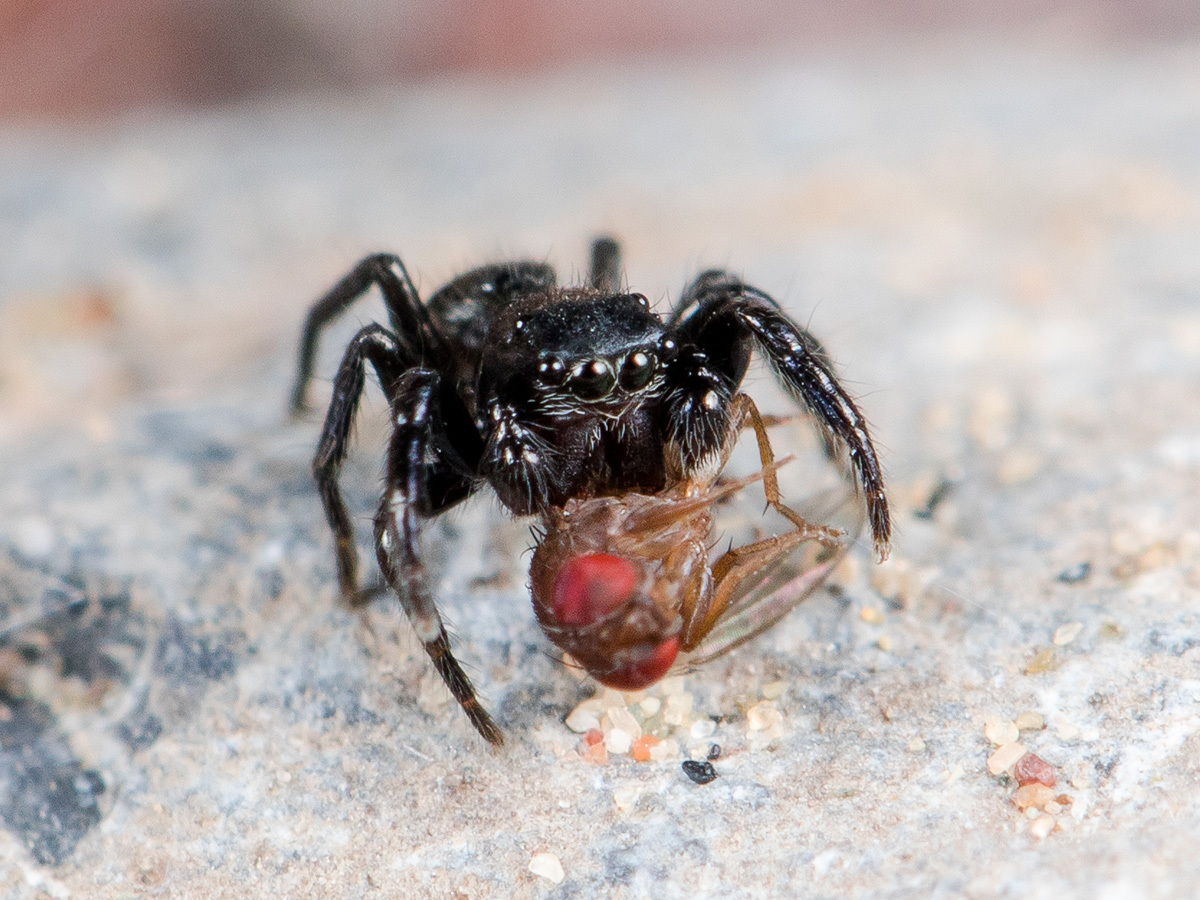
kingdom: Animalia
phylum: Arthropoda
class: Arachnida
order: Araneae
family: Salticidae
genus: Chalcoscirtus
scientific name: Chalcoscirtus nigritus
